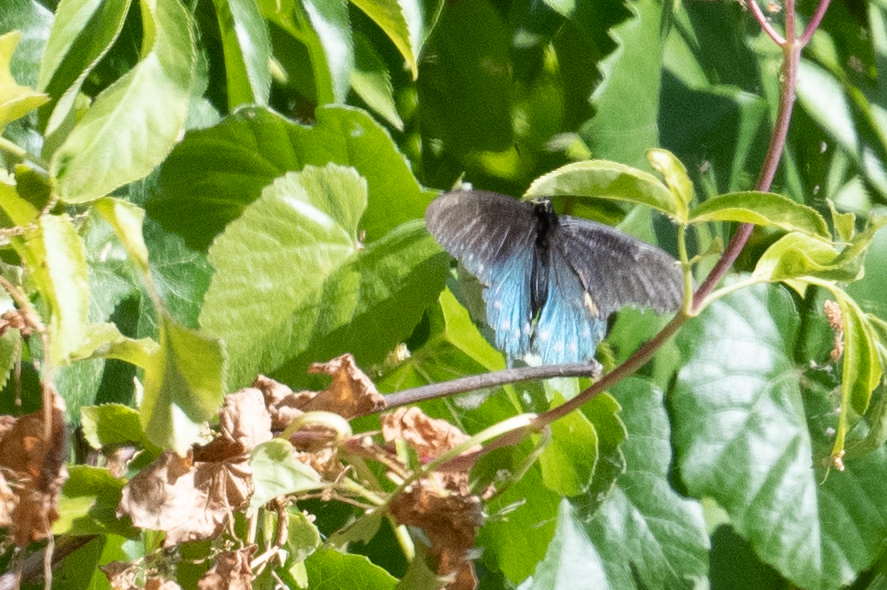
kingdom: Animalia
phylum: Arthropoda
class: Insecta
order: Lepidoptera
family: Papilionidae
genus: Battus
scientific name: Battus philenor
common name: Pipevine swallowtail
